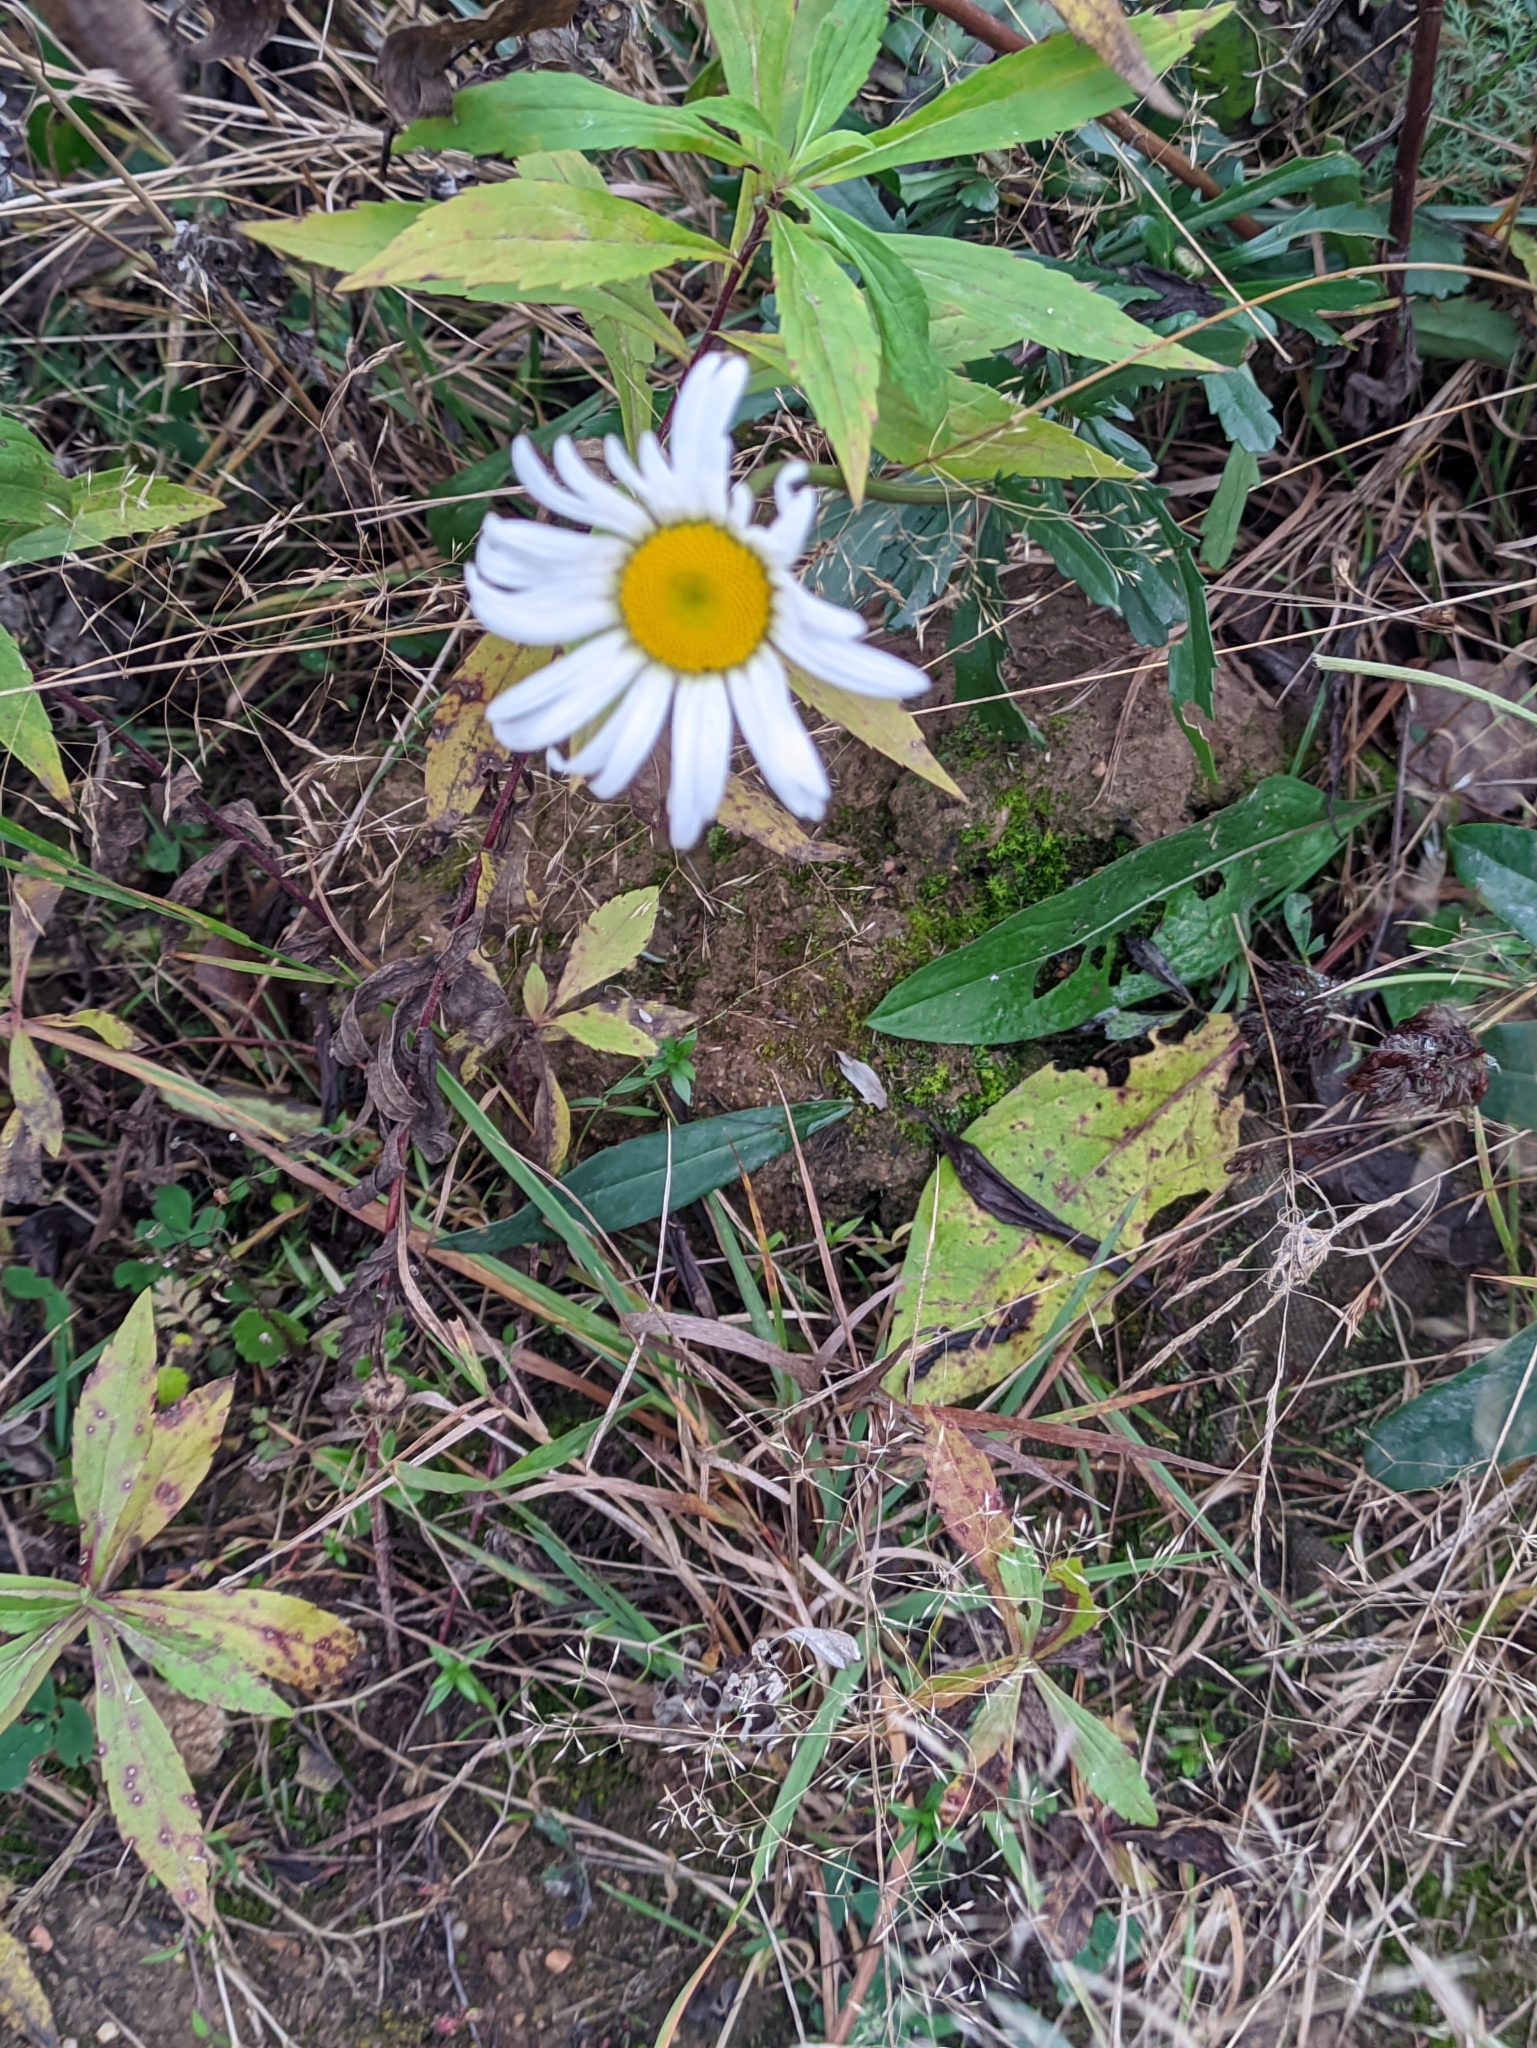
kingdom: Plantae
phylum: Tracheophyta
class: Magnoliopsida
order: Asterales
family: Asteraceae
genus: Leucanthemum
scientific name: Leucanthemum vulgare
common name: Oxeye daisy
